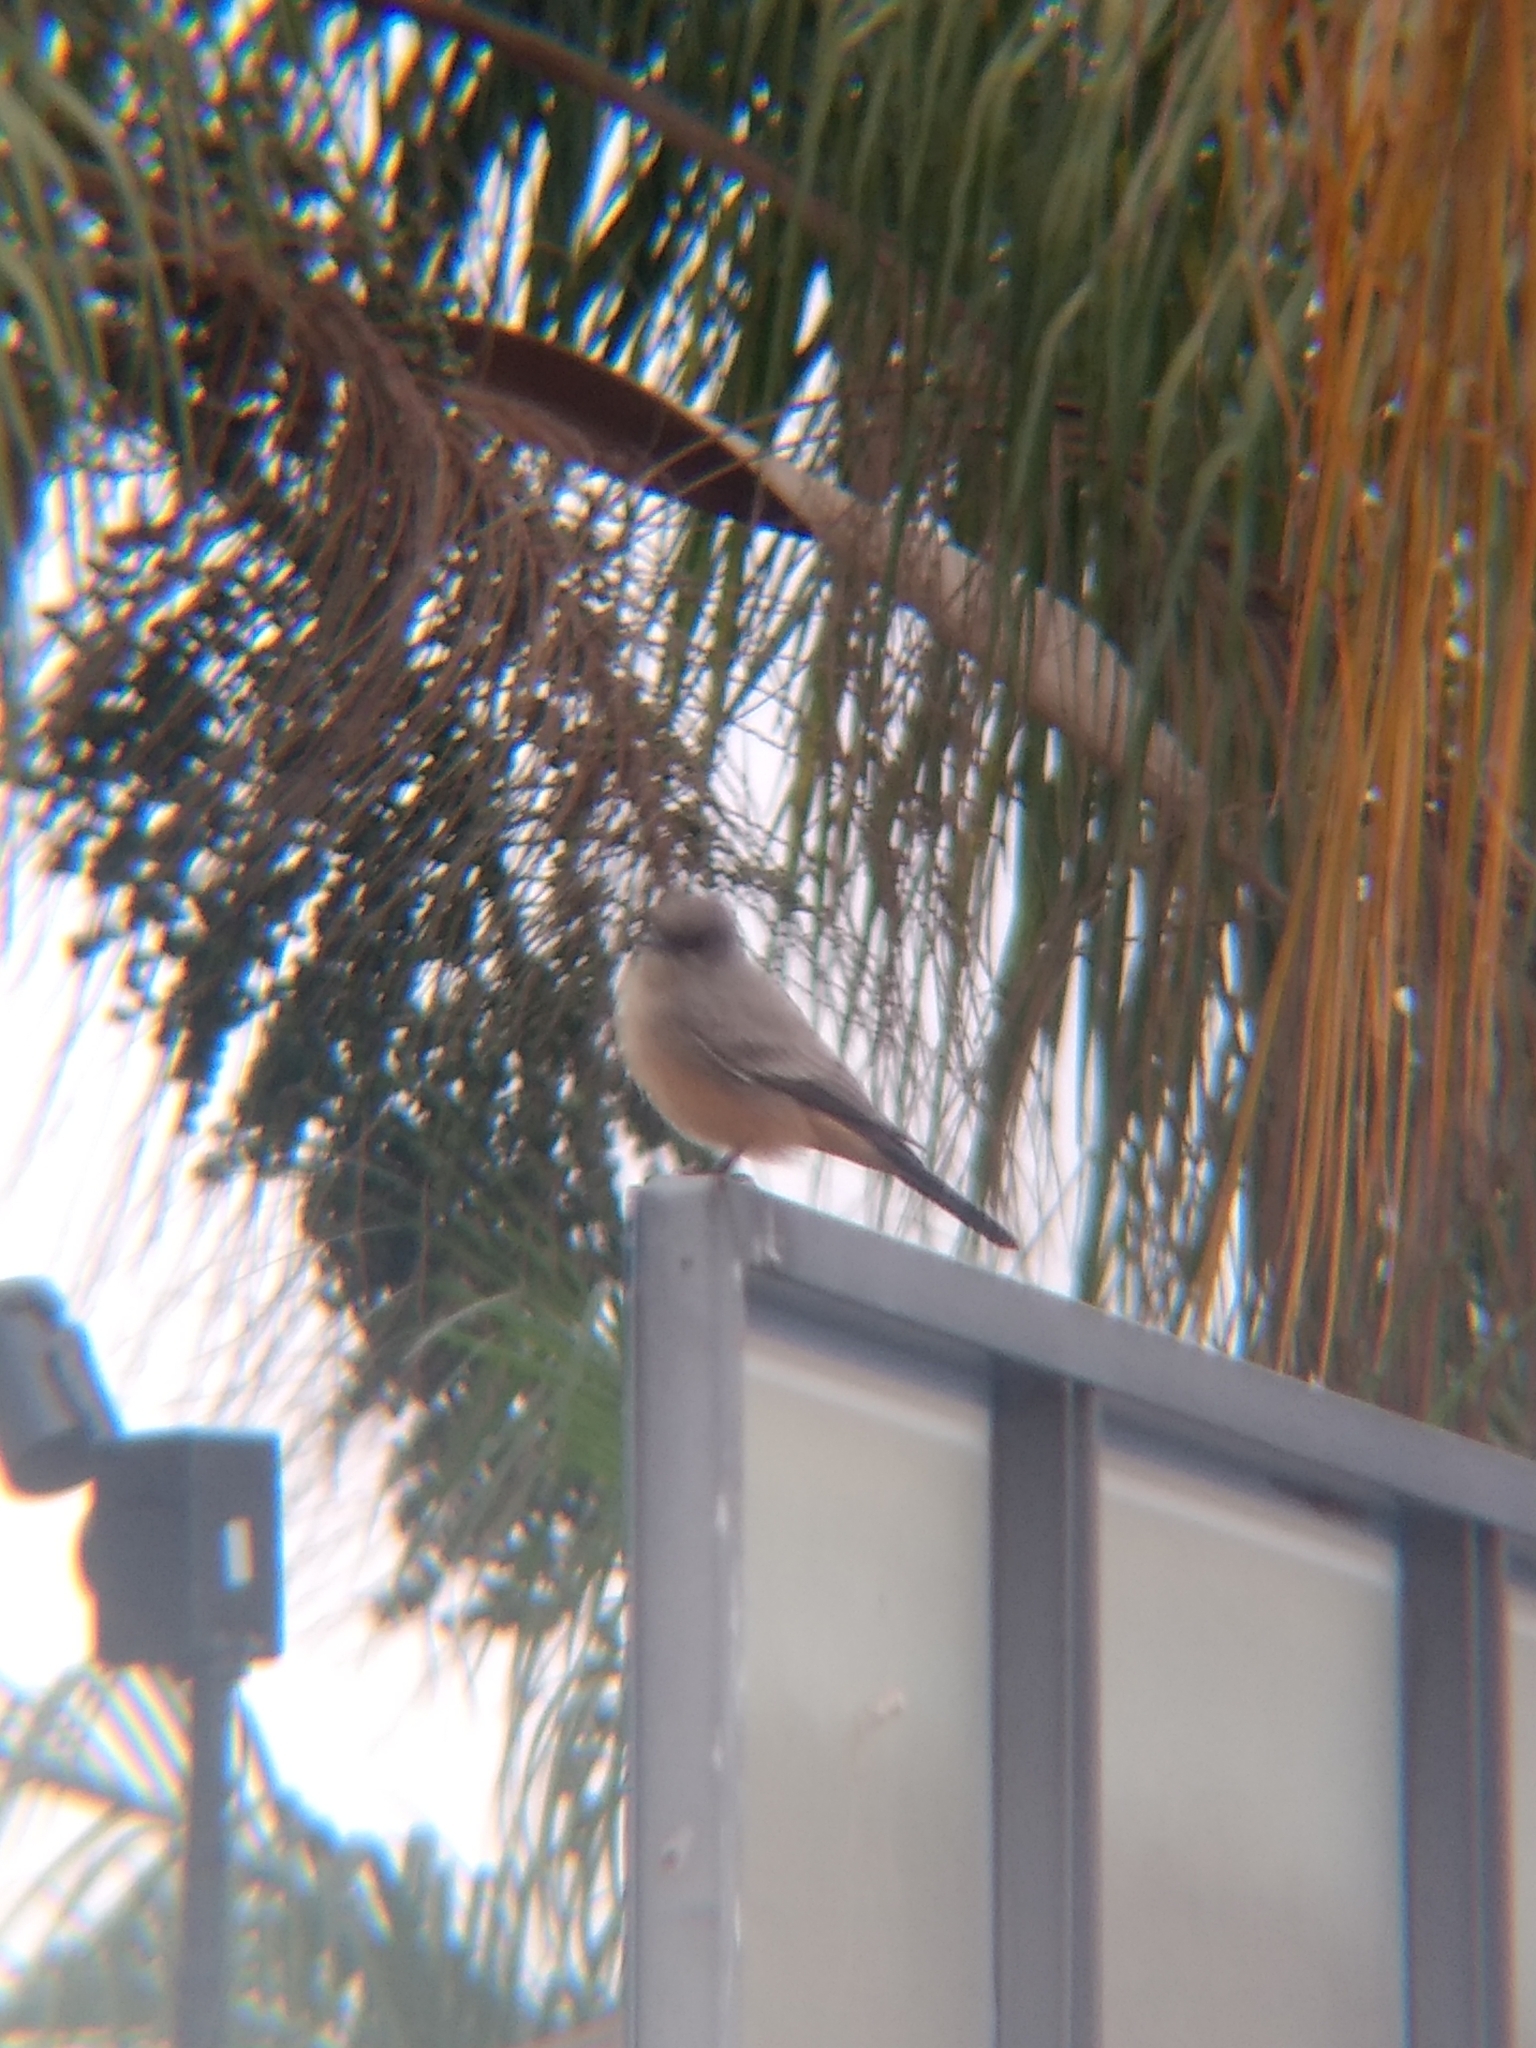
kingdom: Animalia
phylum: Chordata
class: Aves
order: Passeriformes
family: Tyrannidae
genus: Sayornis
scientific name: Sayornis saya
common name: Say's phoebe
